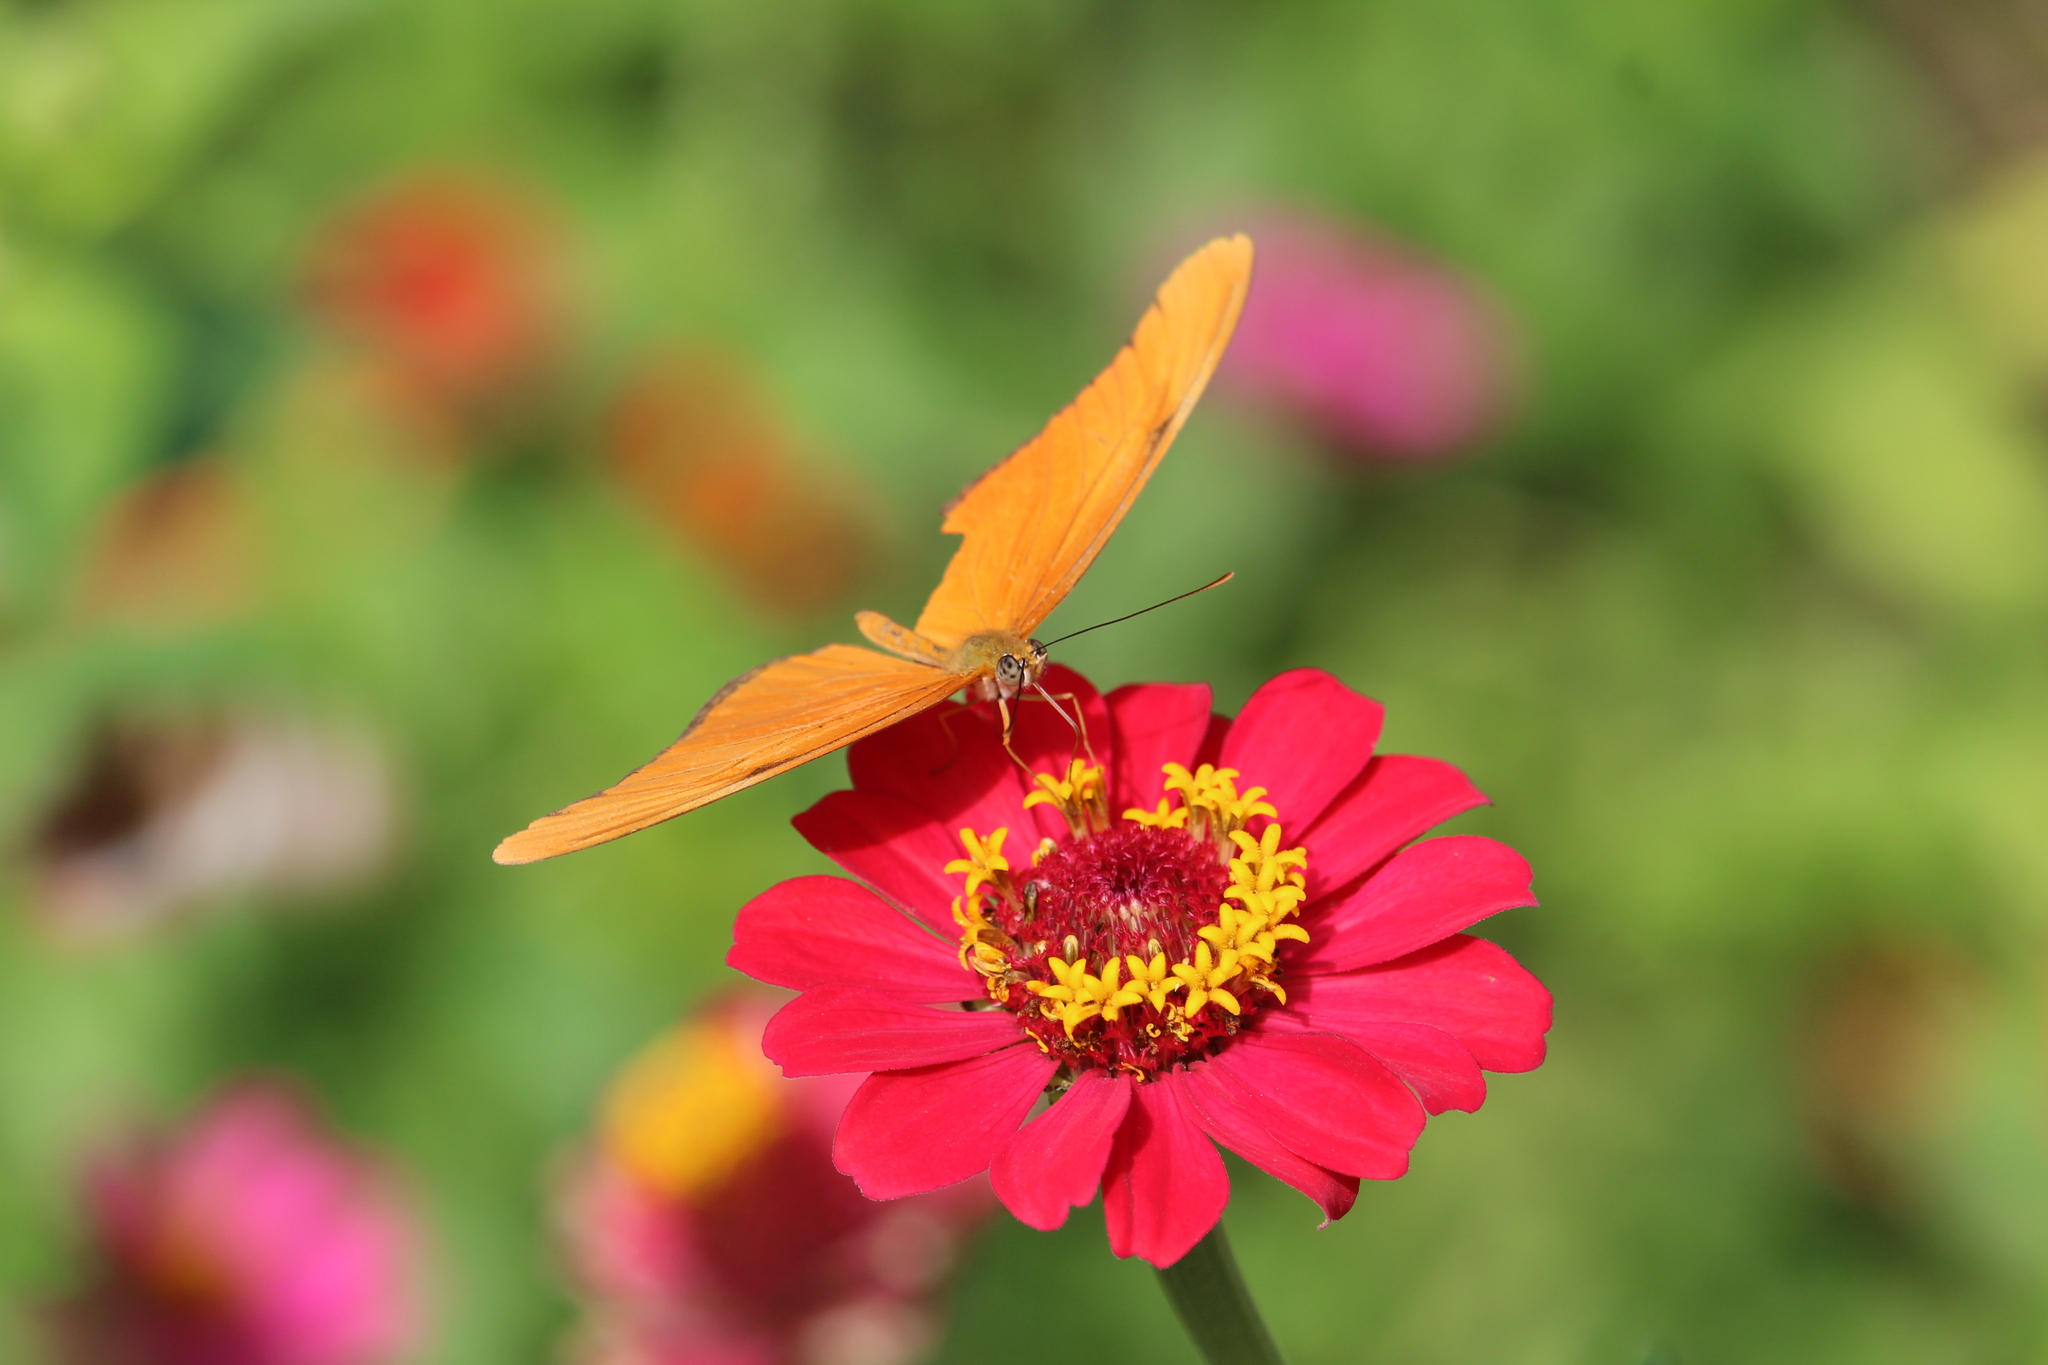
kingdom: Animalia
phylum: Arthropoda
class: Insecta
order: Lepidoptera
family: Nymphalidae
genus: Dryas
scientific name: Dryas iulia
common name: Flambeau
